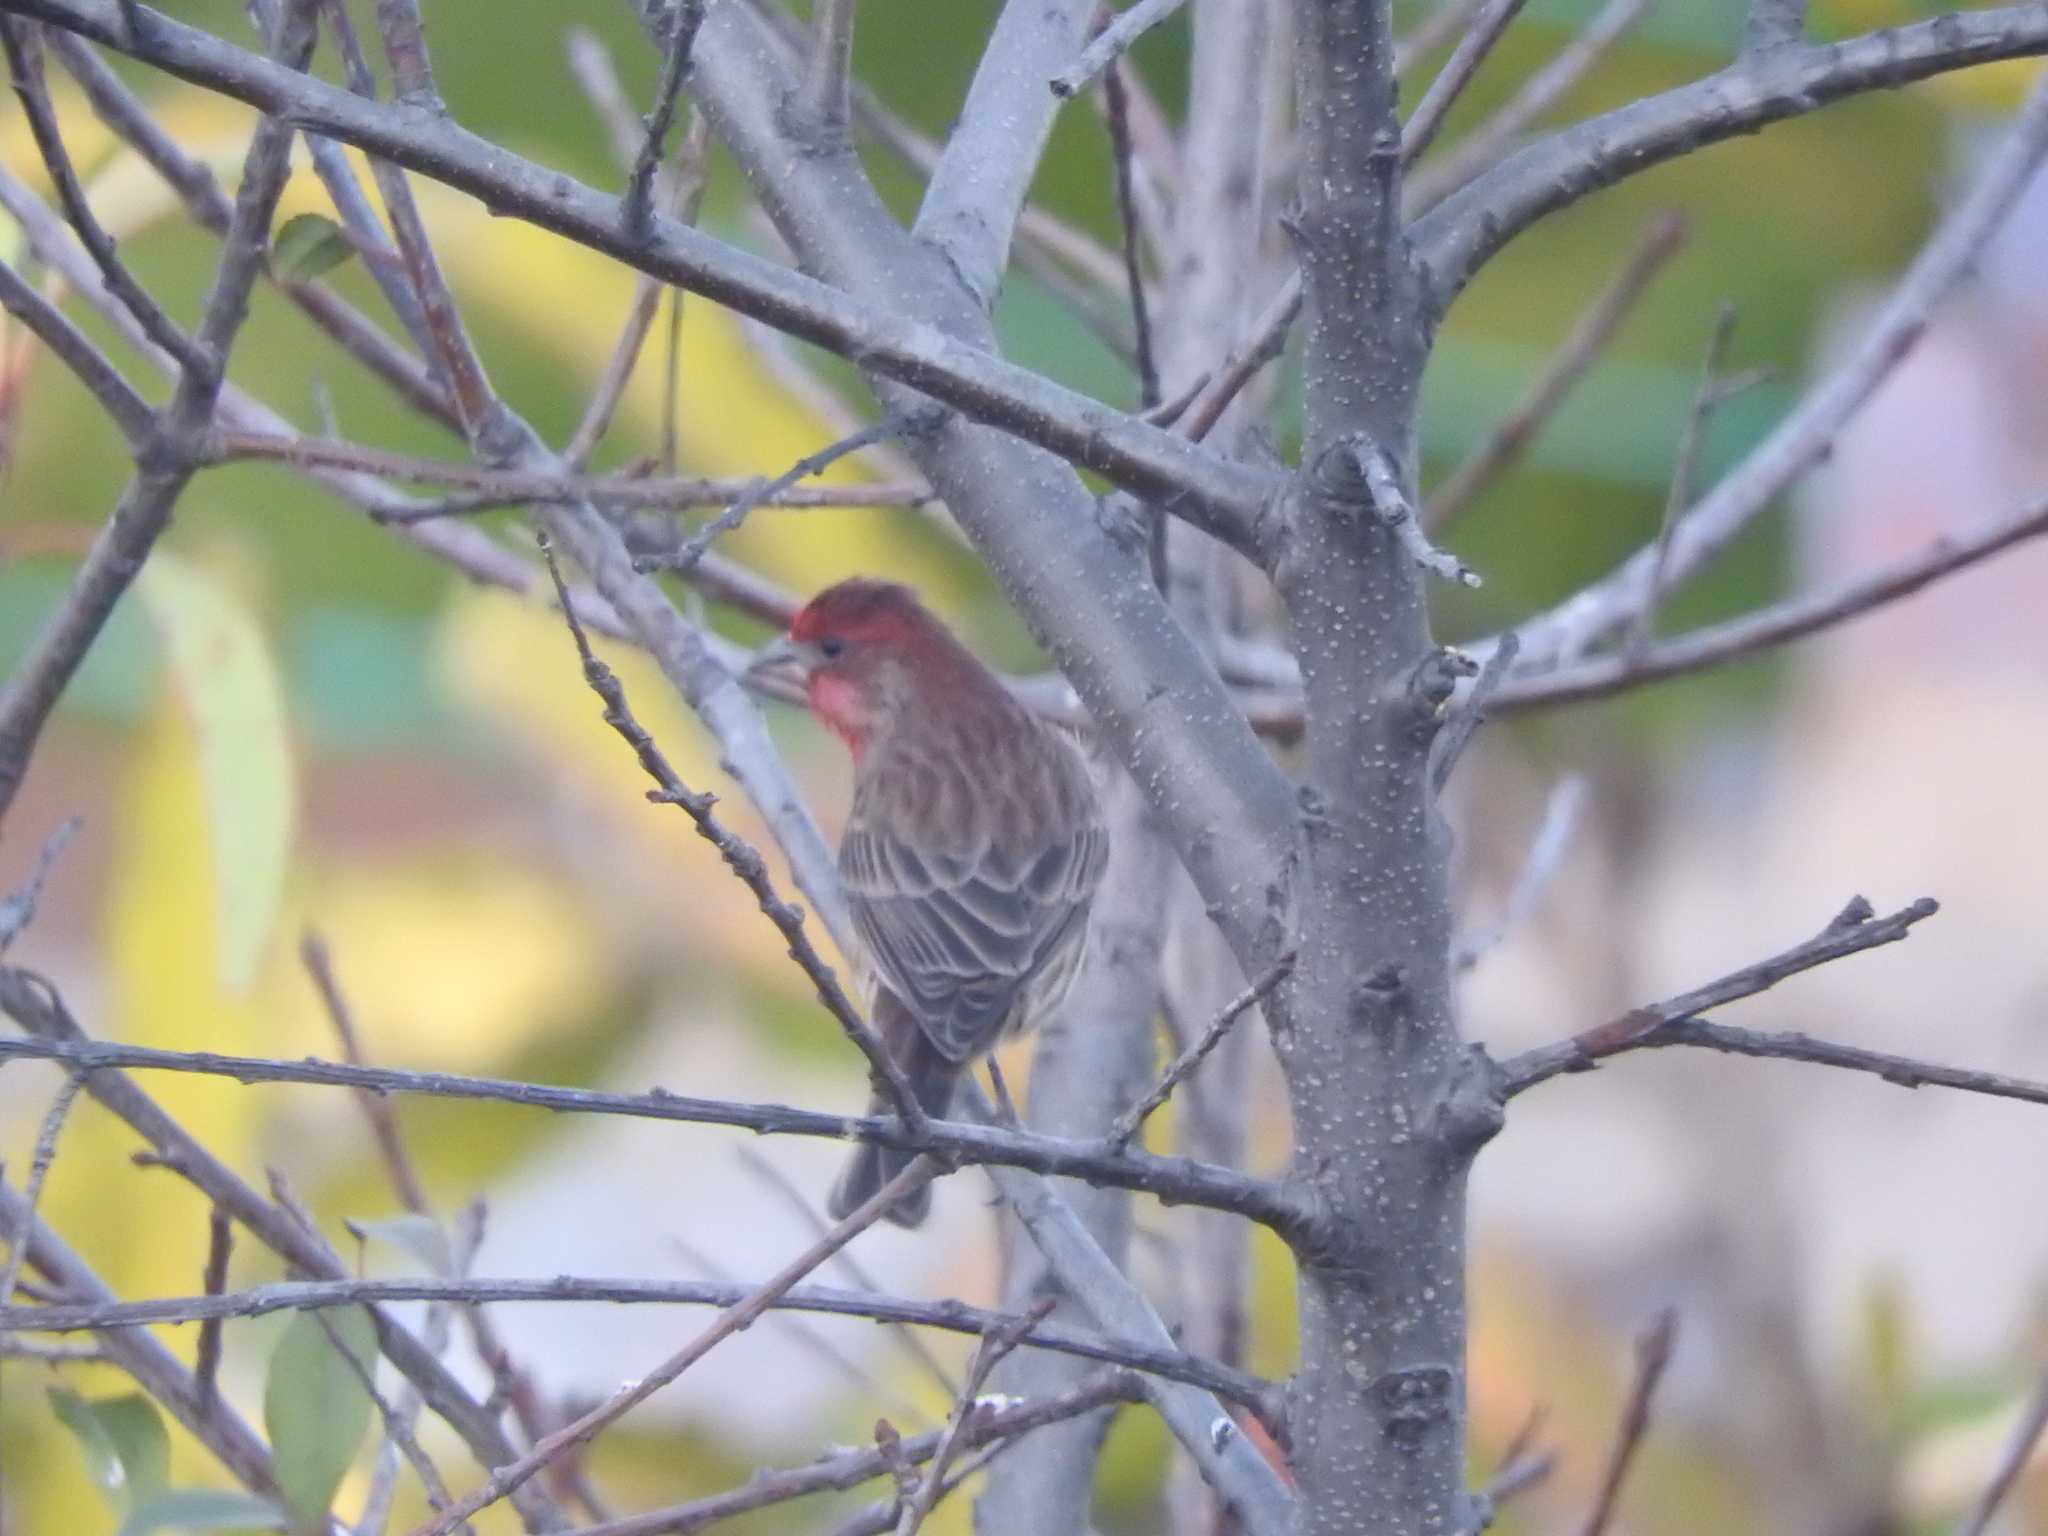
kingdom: Animalia
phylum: Chordata
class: Aves
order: Passeriformes
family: Fringillidae
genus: Haemorhous
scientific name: Haemorhous mexicanus
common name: House finch
